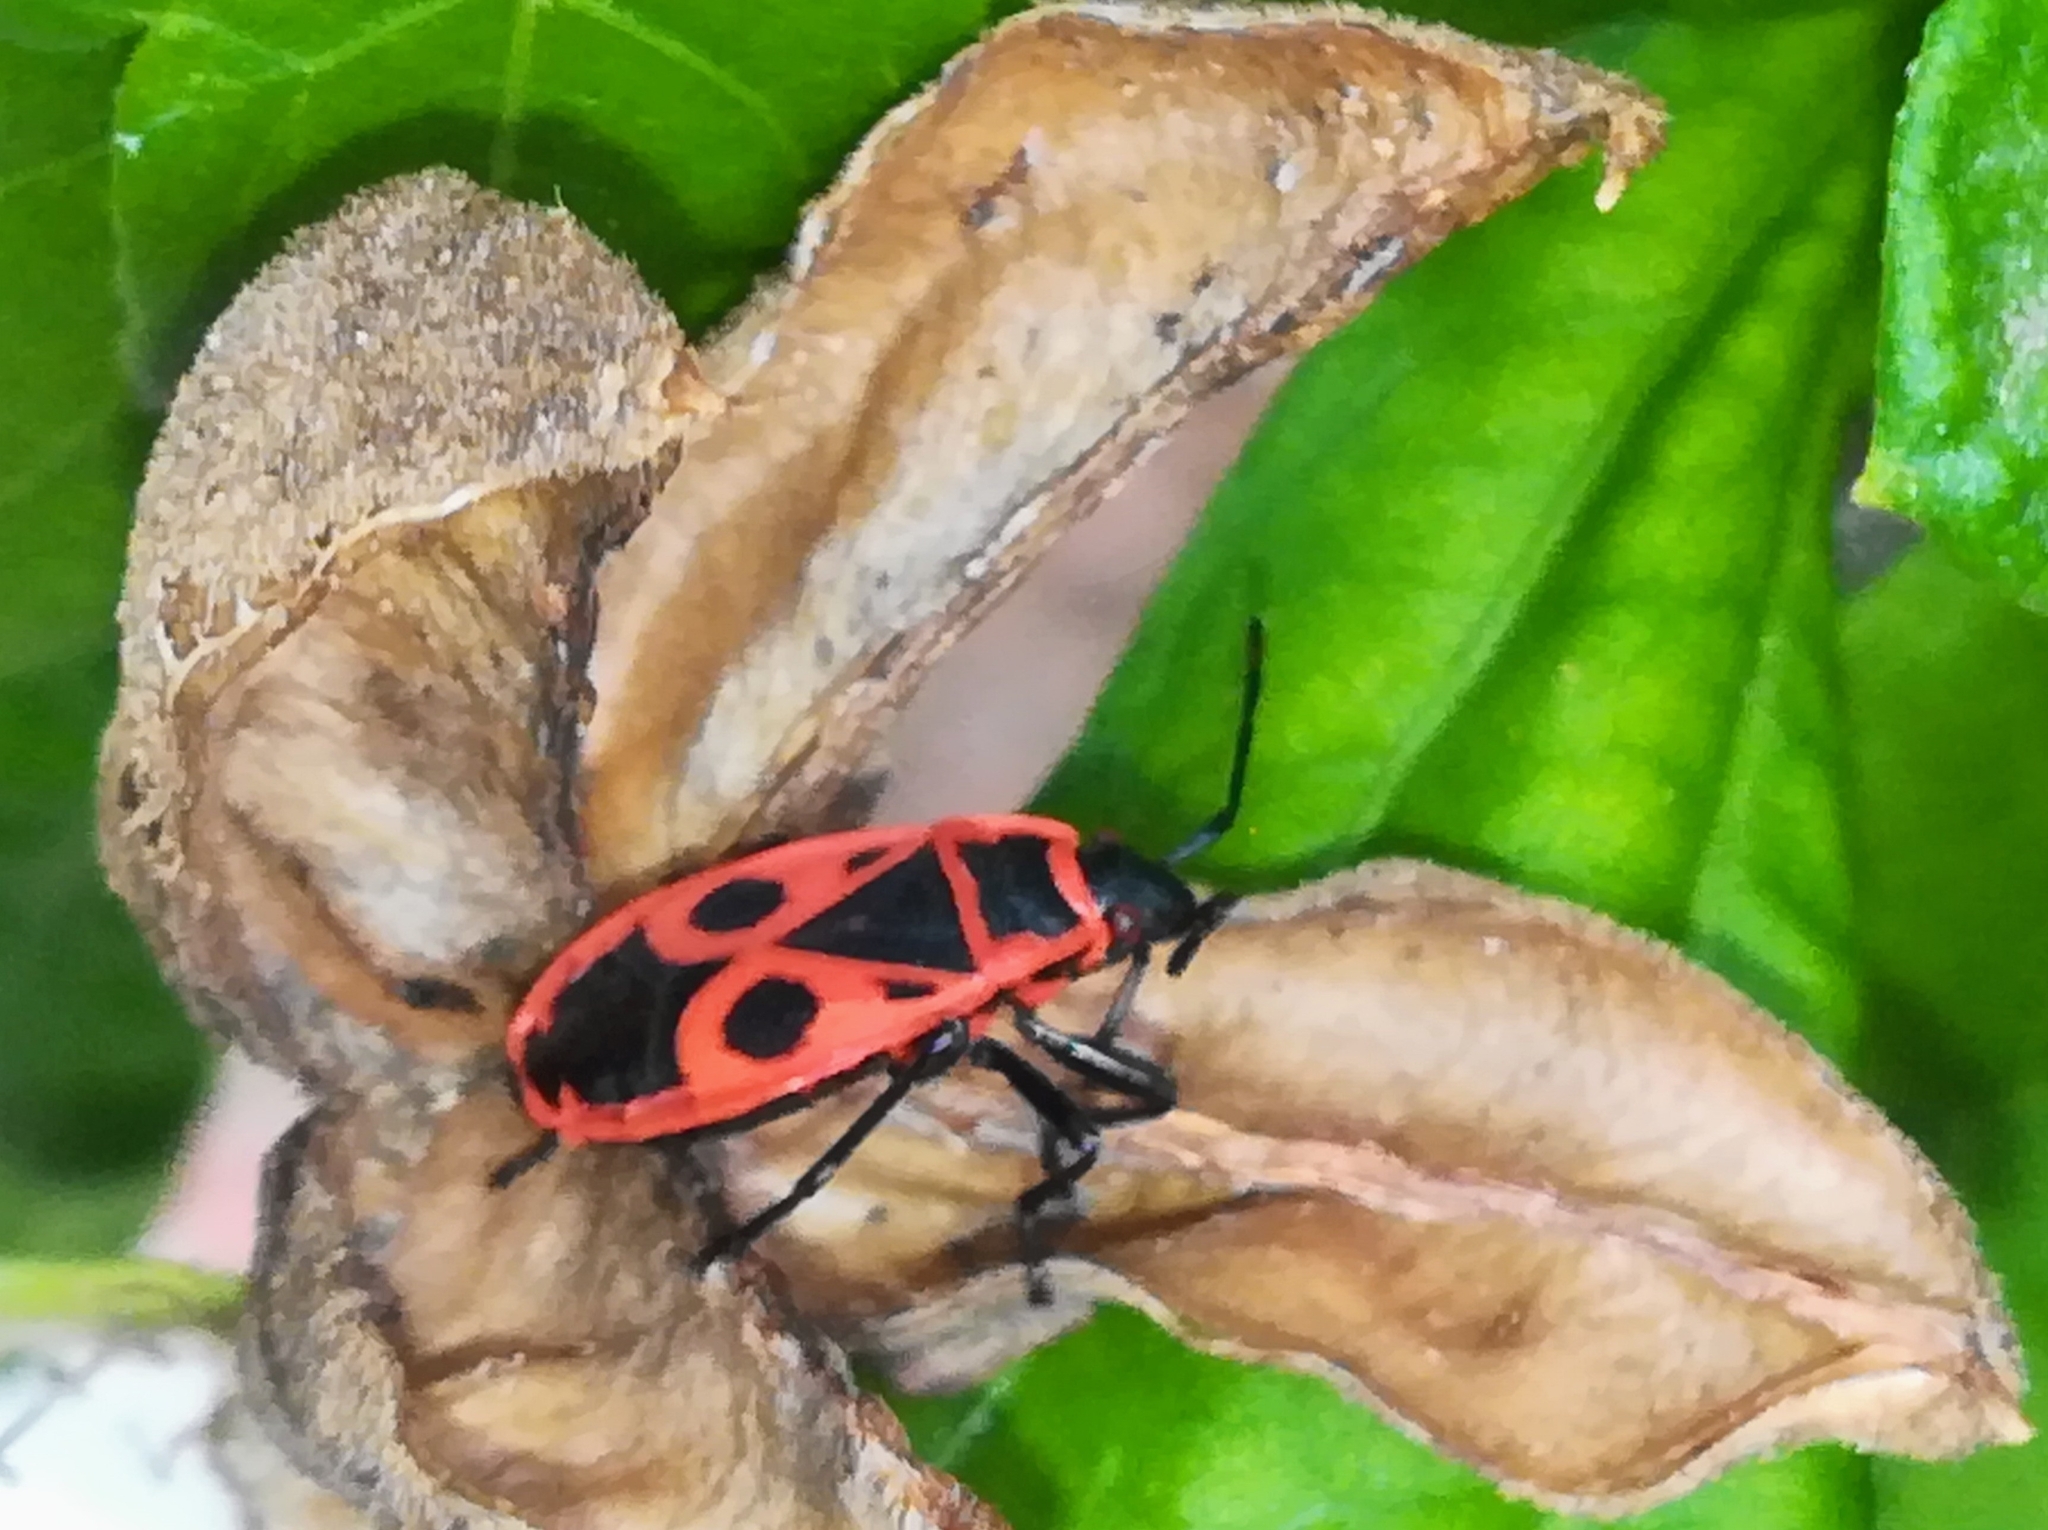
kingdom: Animalia
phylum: Arthropoda
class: Insecta
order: Hemiptera
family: Pyrrhocoridae
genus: Pyrrhocoris
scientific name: Pyrrhocoris apterus
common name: Firebug
